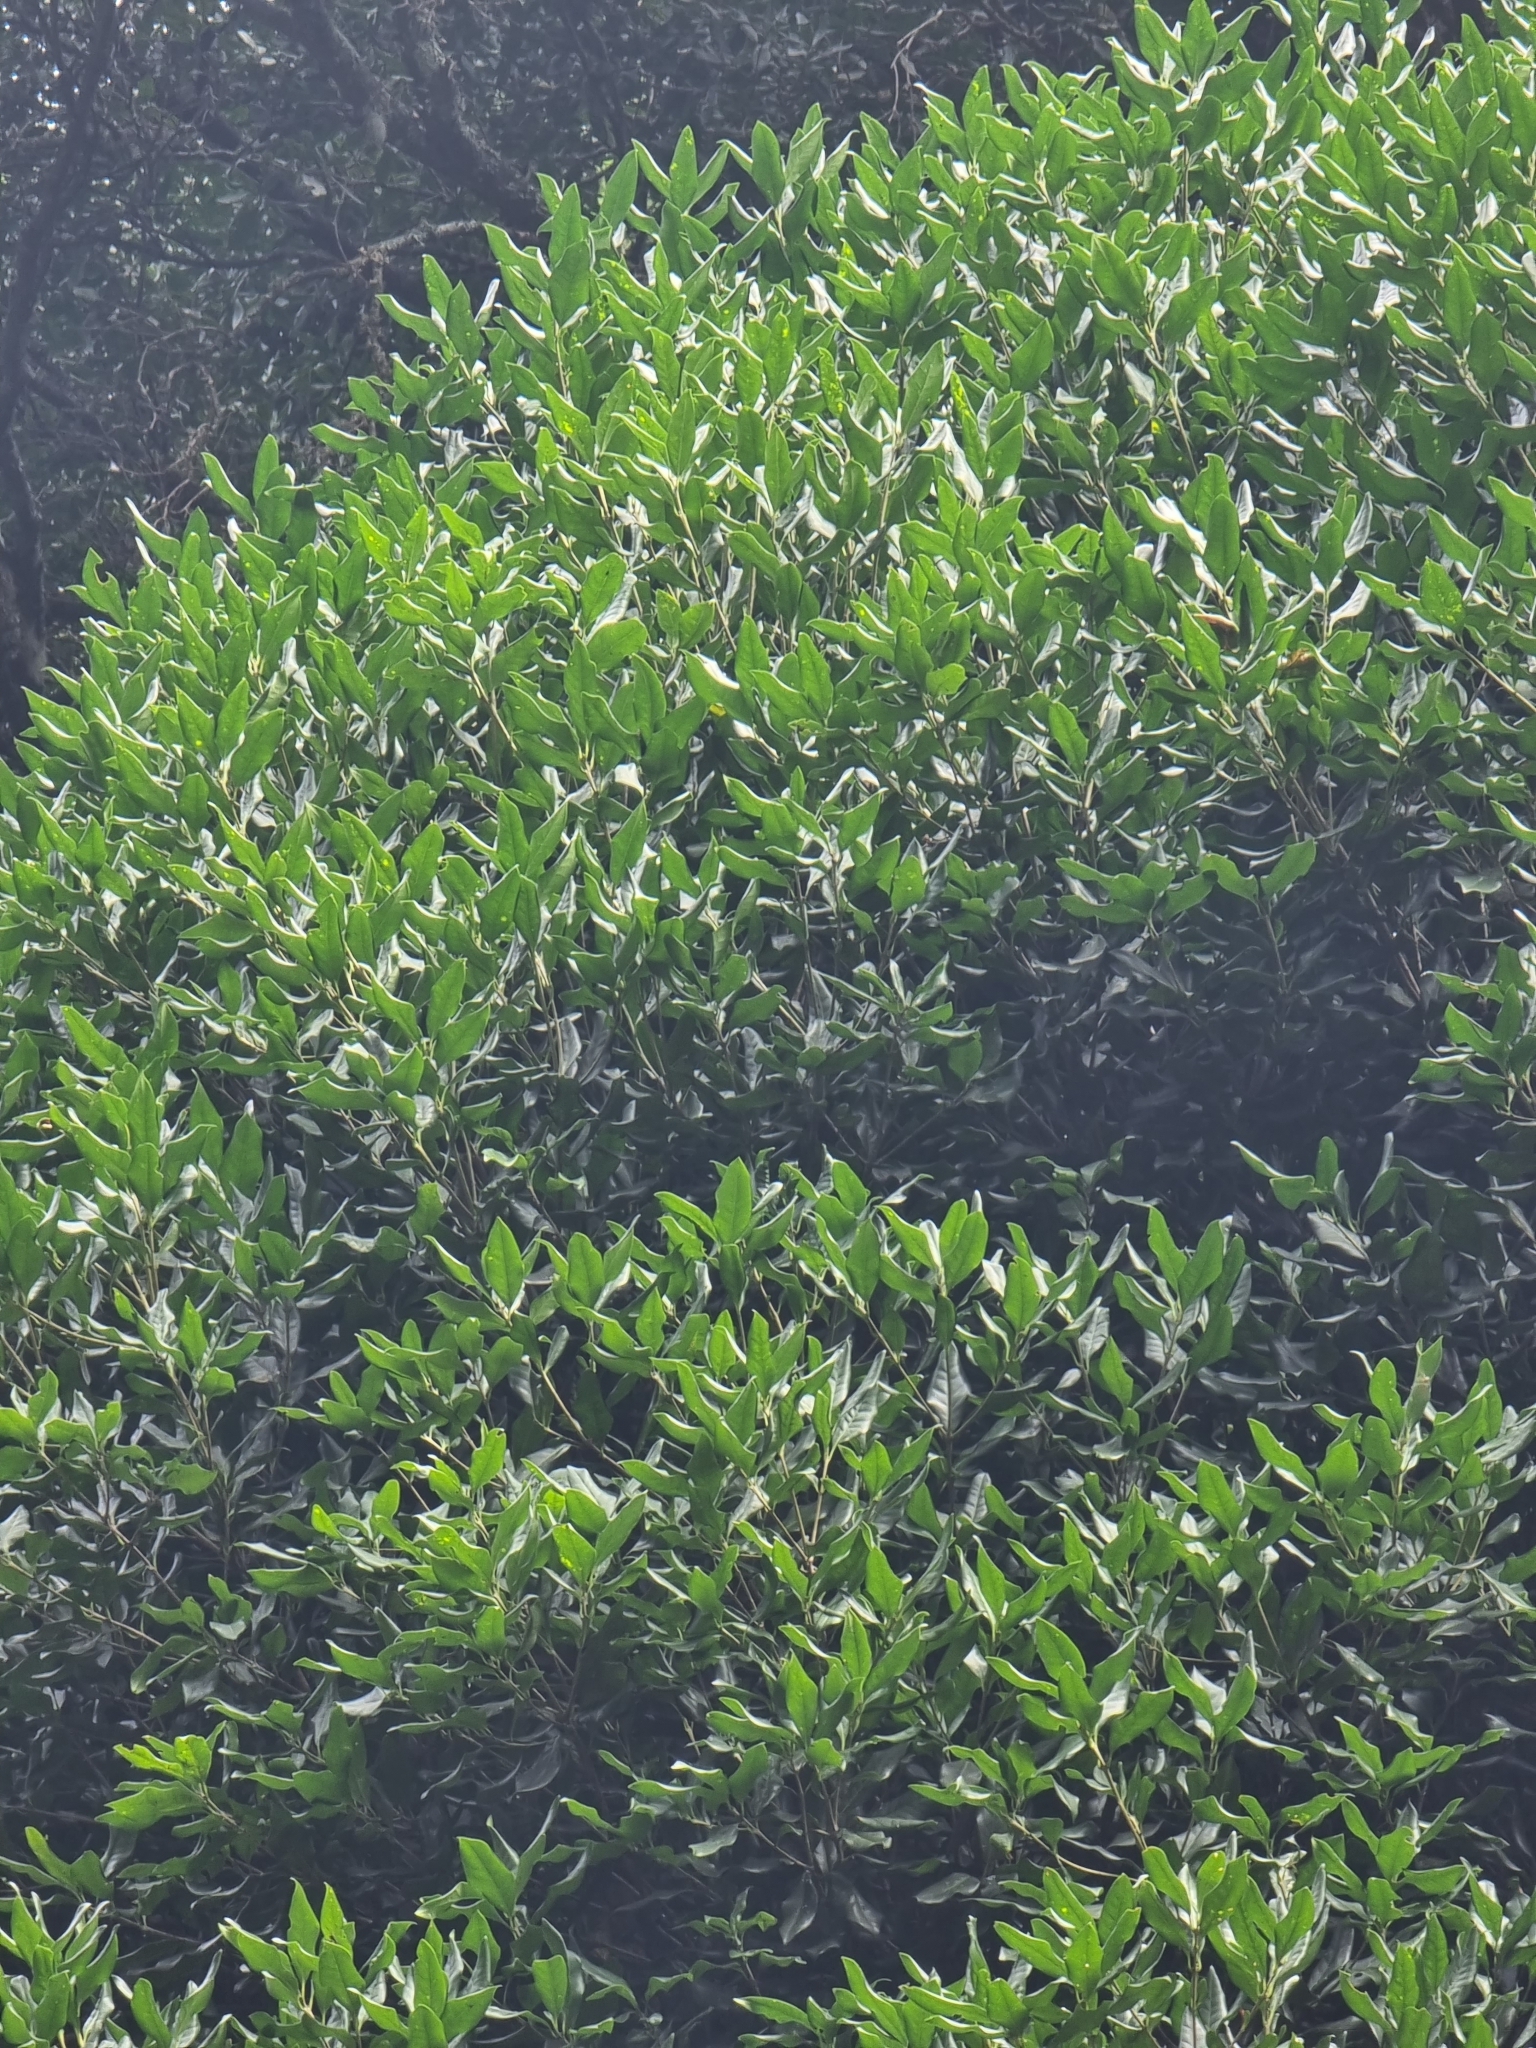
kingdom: Plantae
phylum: Tracheophyta
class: Magnoliopsida
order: Lamiales
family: Oleaceae
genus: Picconia
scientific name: Picconia excelsa
